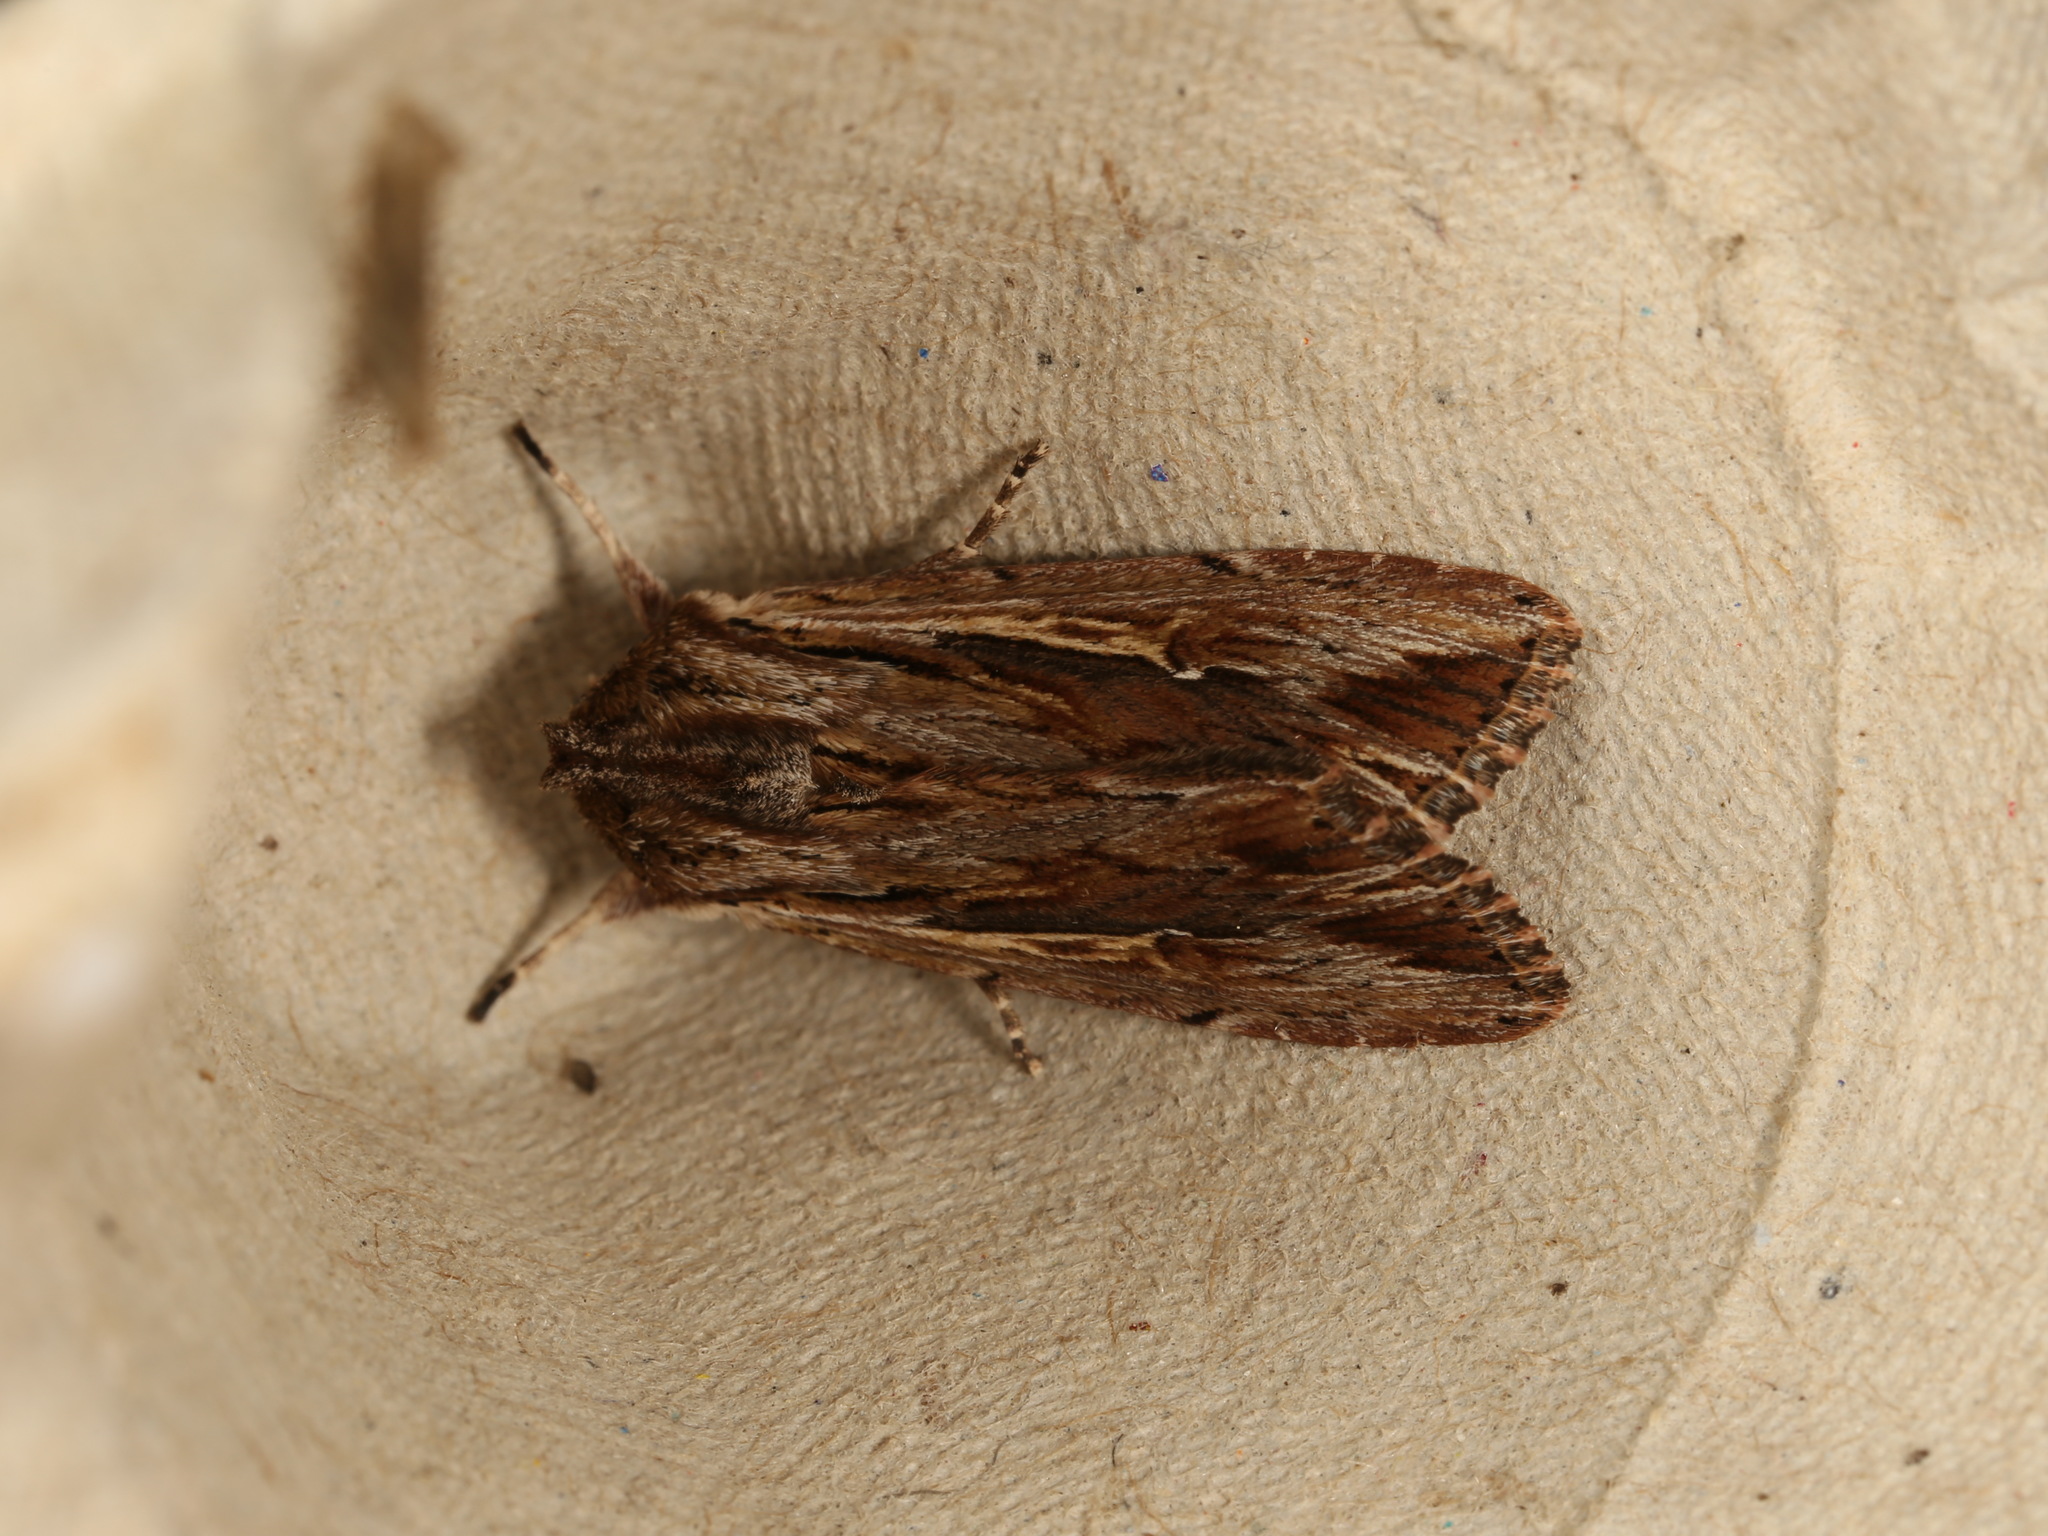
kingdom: Animalia
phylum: Arthropoda
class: Insecta
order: Lepidoptera
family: Noctuidae
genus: Persectania
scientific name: Persectania ewingii
